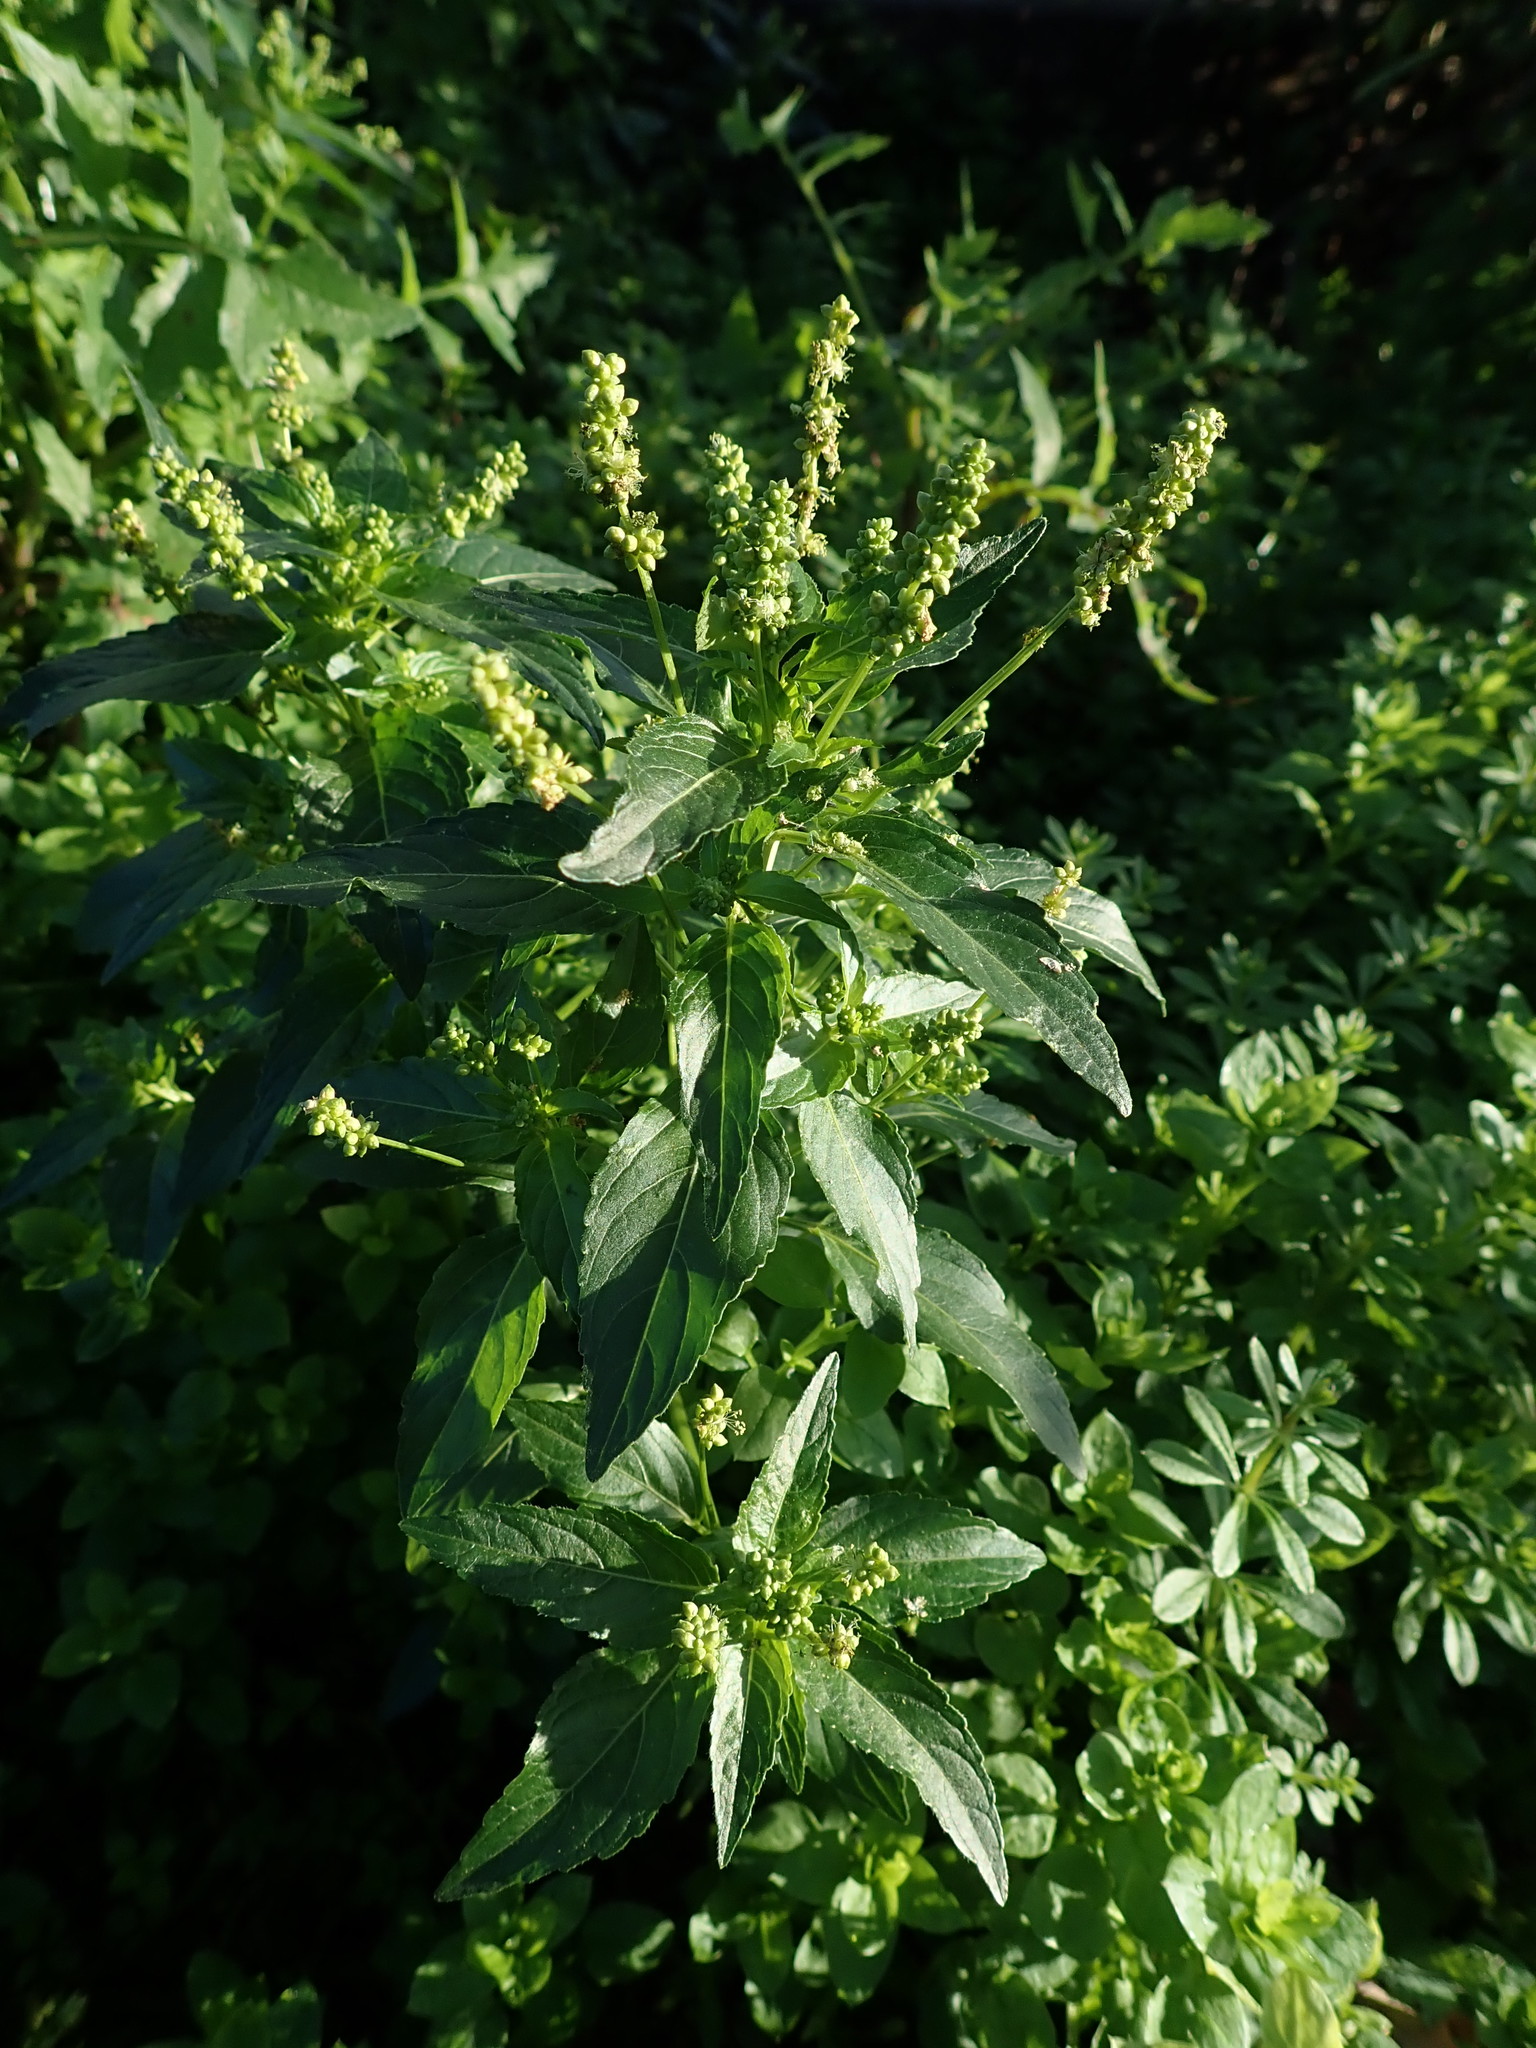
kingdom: Plantae
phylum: Tracheophyta
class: Magnoliopsida
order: Malpighiales
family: Euphorbiaceae
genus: Mercurialis
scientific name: Mercurialis annua
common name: Annual mercury
